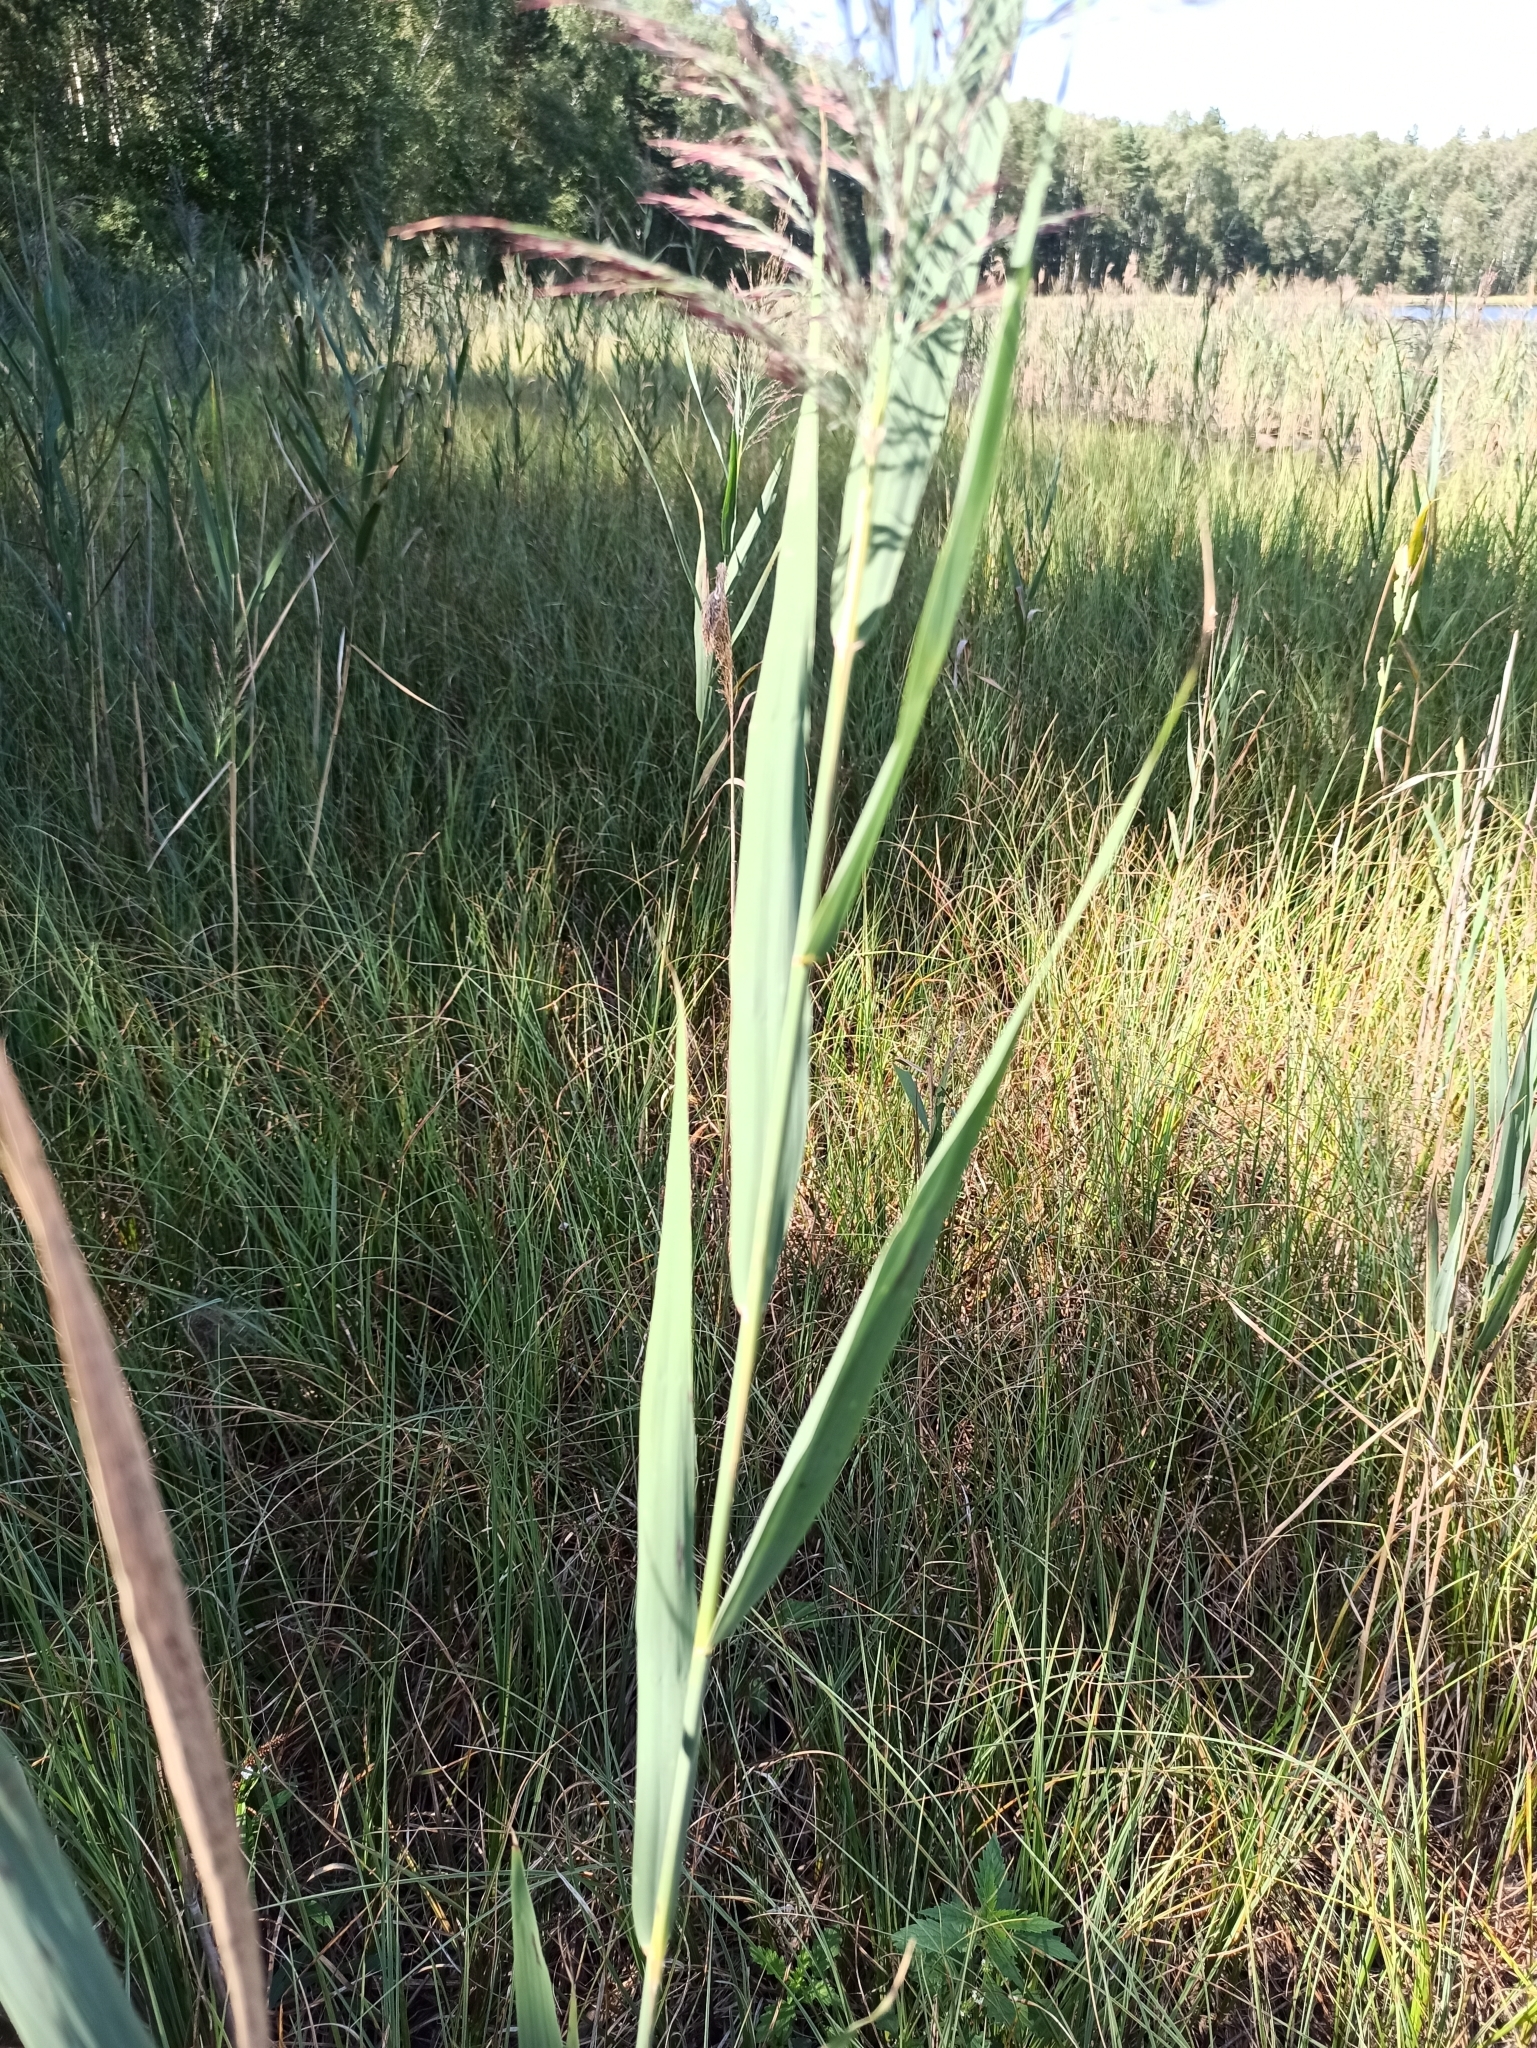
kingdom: Plantae
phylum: Tracheophyta
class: Liliopsida
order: Poales
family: Poaceae
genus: Phragmites
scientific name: Phragmites australis
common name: Common reed
